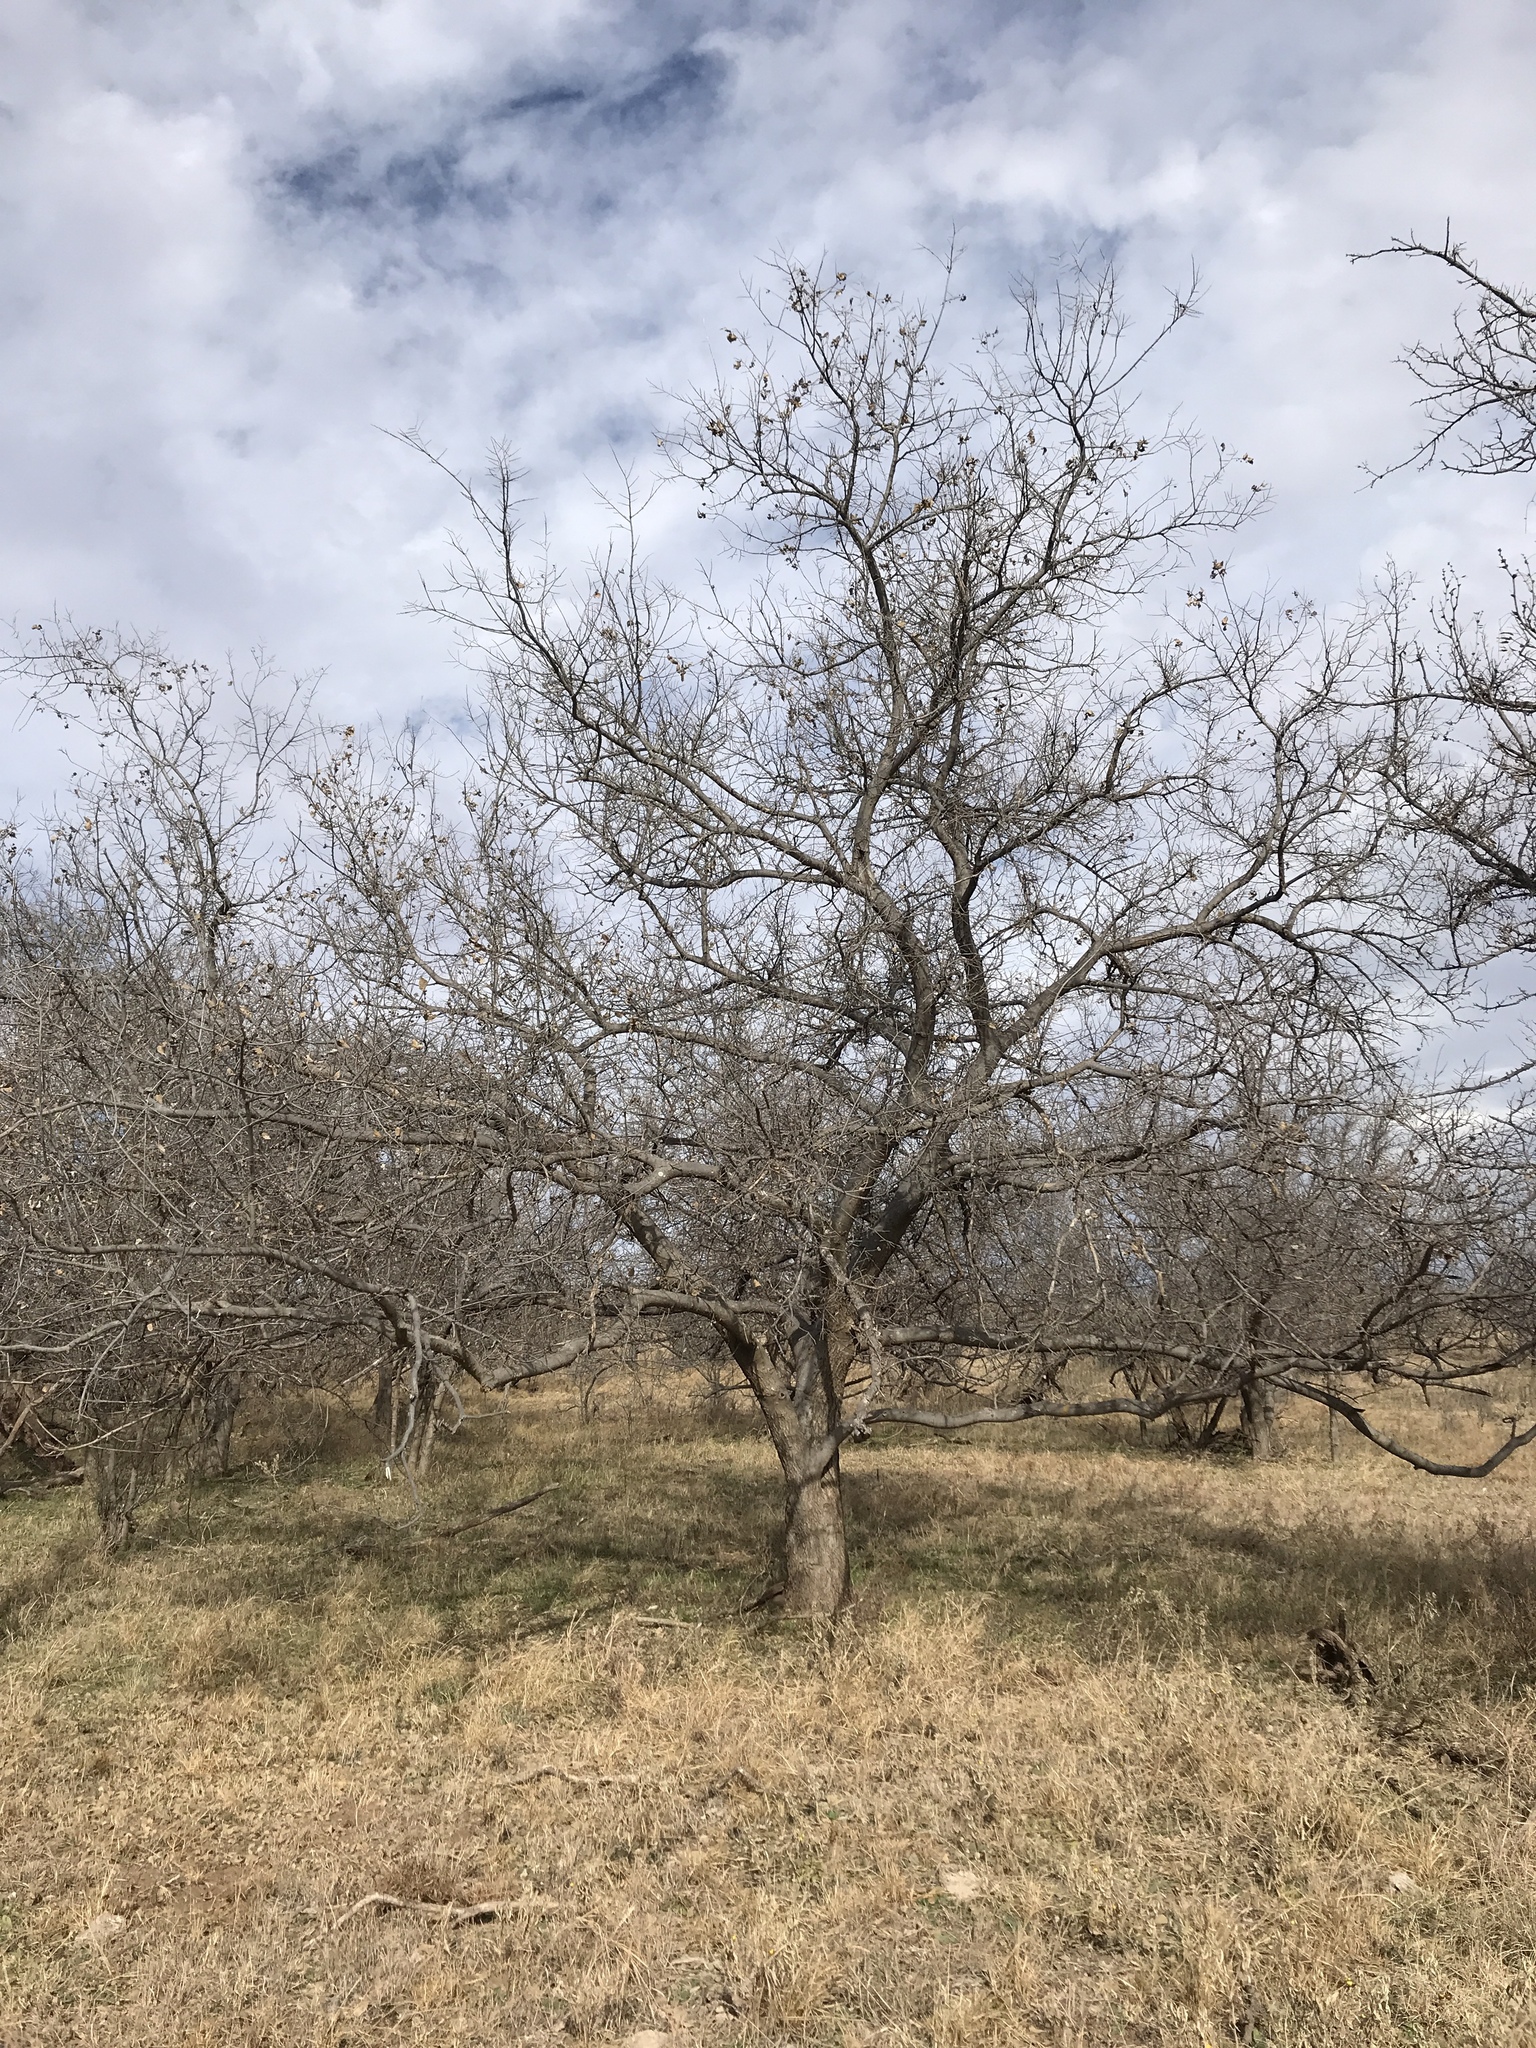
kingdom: Plantae
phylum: Tracheophyta
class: Magnoliopsida
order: Rosales
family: Cannabaceae
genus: Celtis
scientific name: Celtis laevigata
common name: Sugarberry
